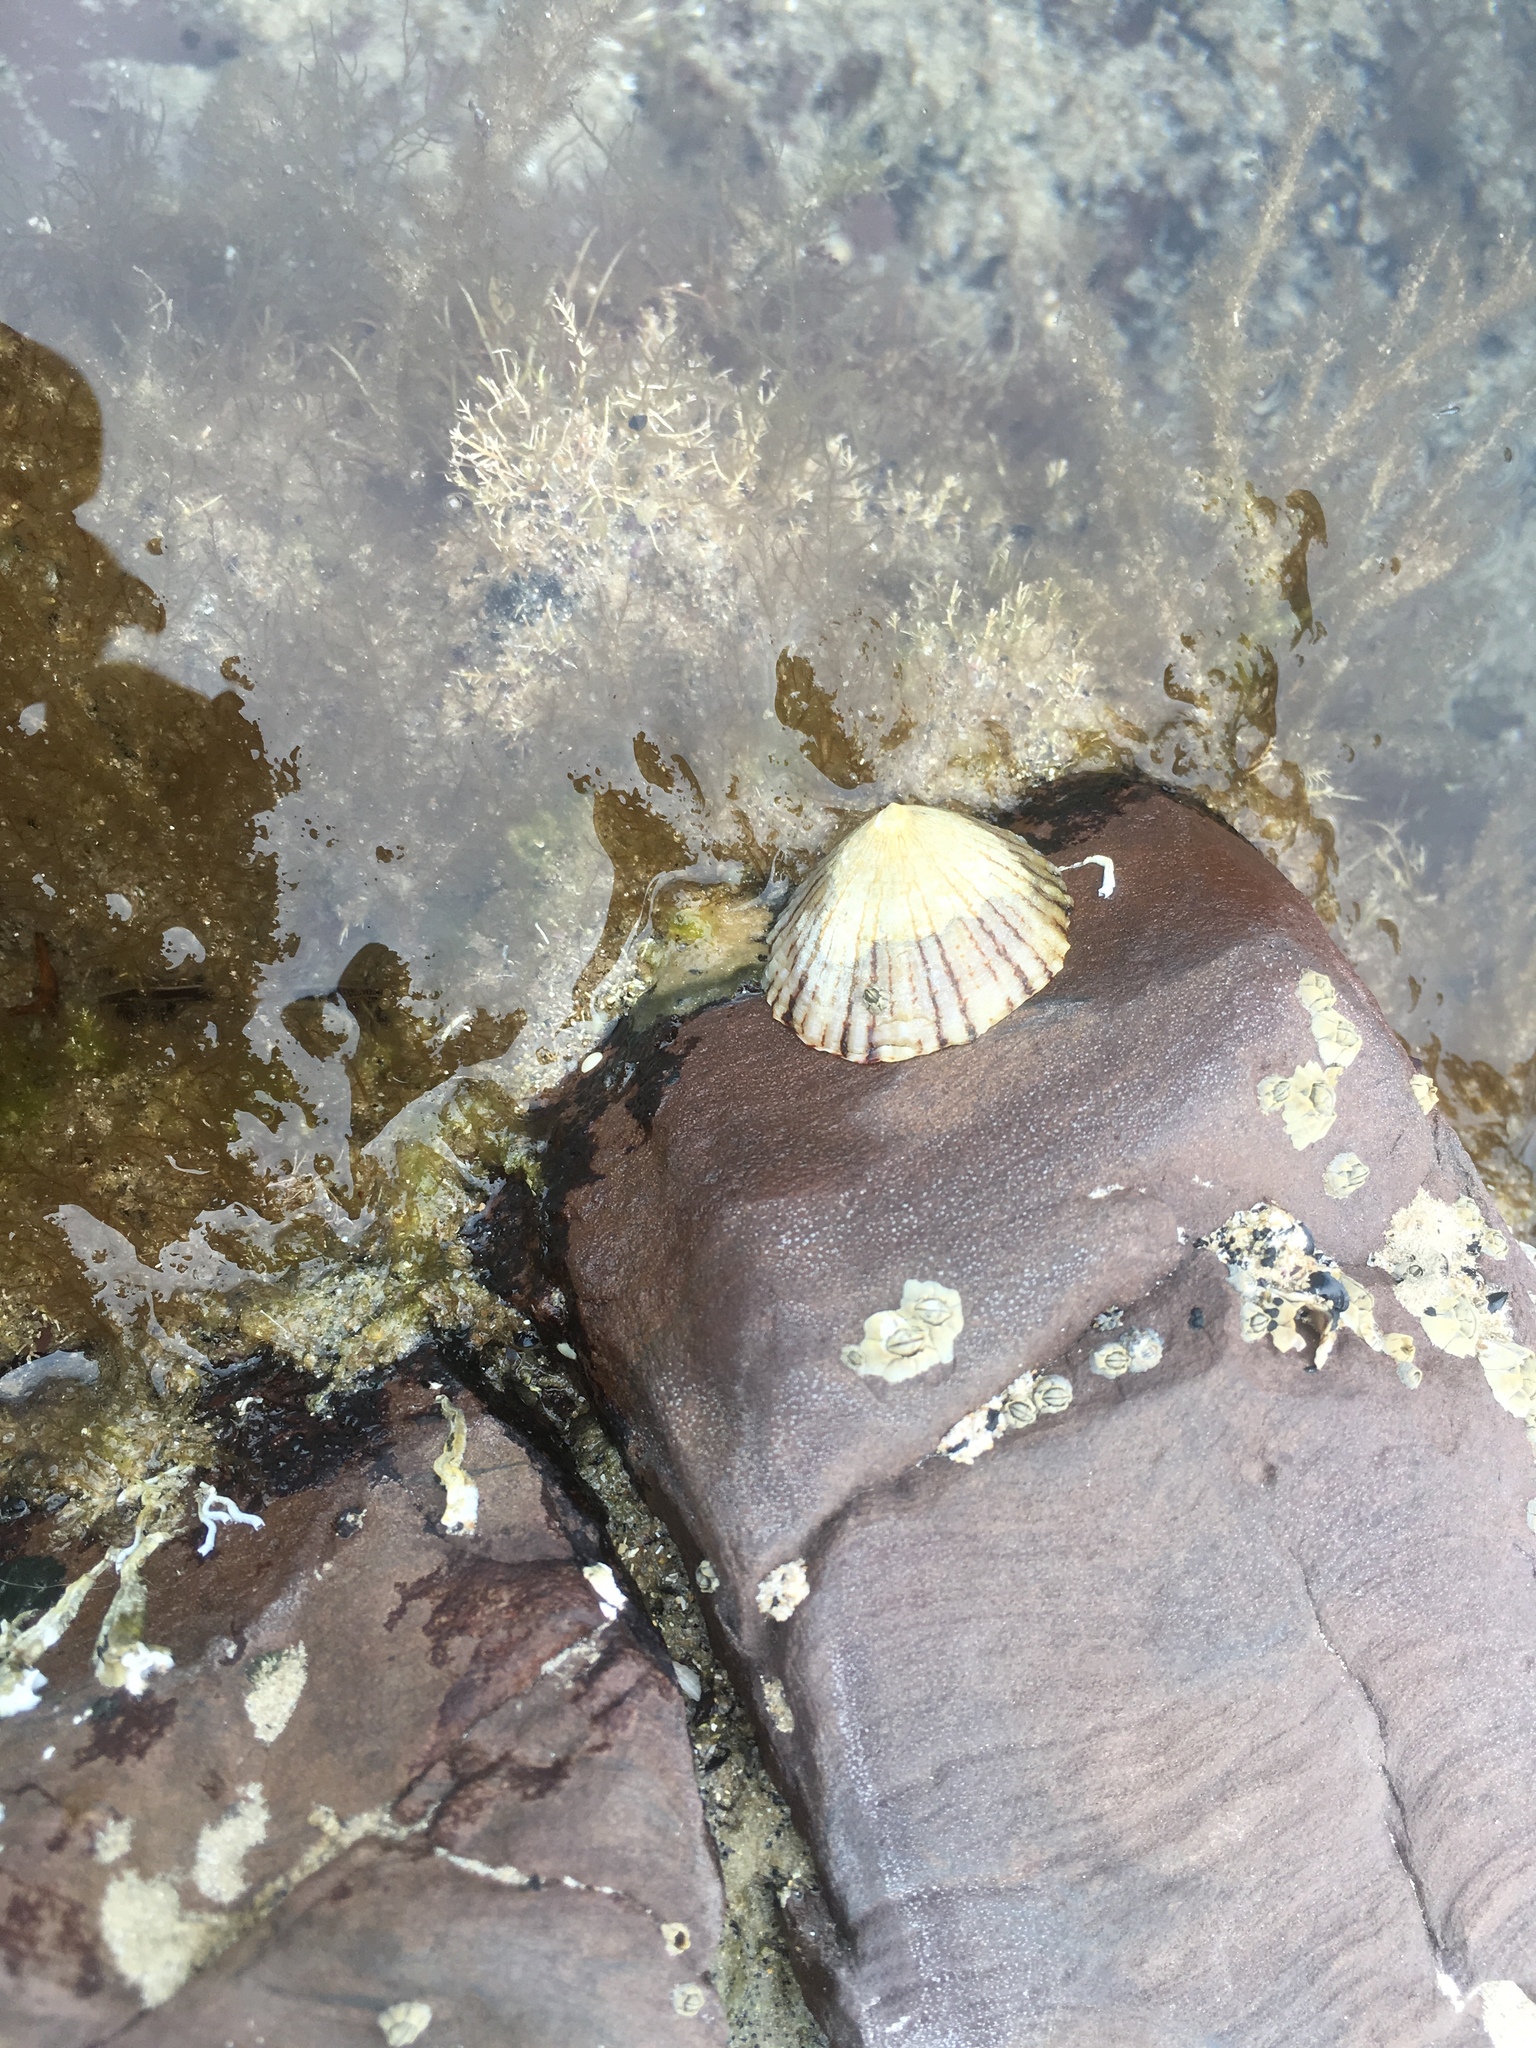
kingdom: Animalia
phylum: Mollusca
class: Gastropoda
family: Nacellidae
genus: Cellana
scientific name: Cellana tramoserica
